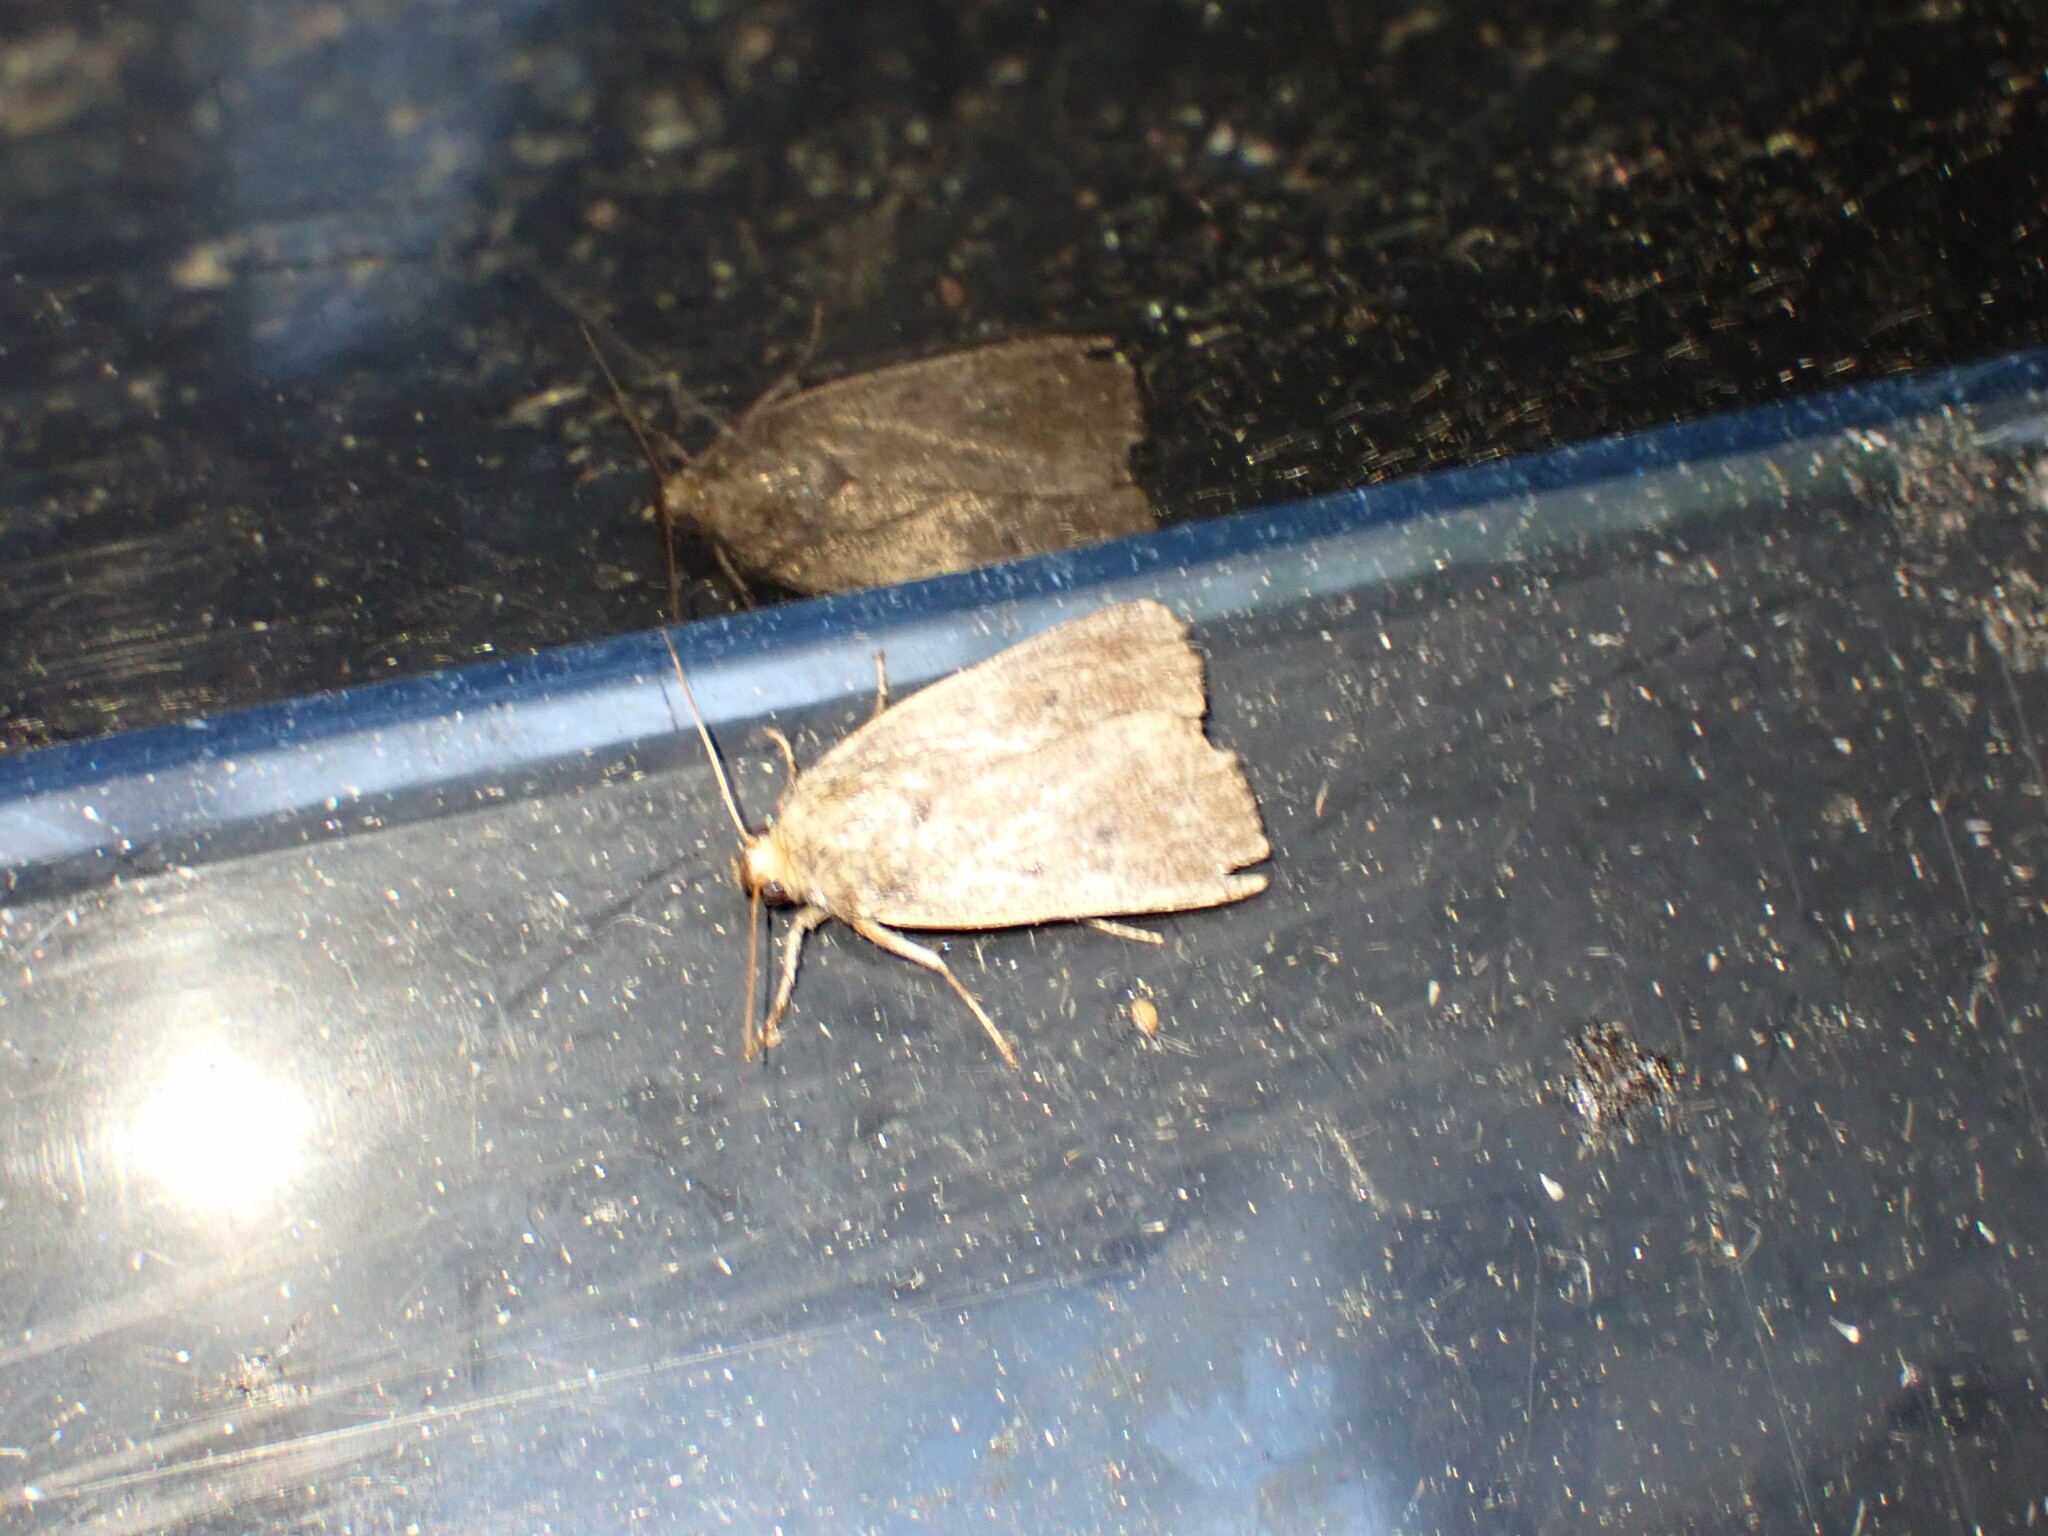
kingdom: Animalia
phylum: Arthropoda
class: Insecta
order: Lepidoptera
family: Noctuidae
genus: Amphipyra
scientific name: Amphipyra tragopoginis
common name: Mouse moth
